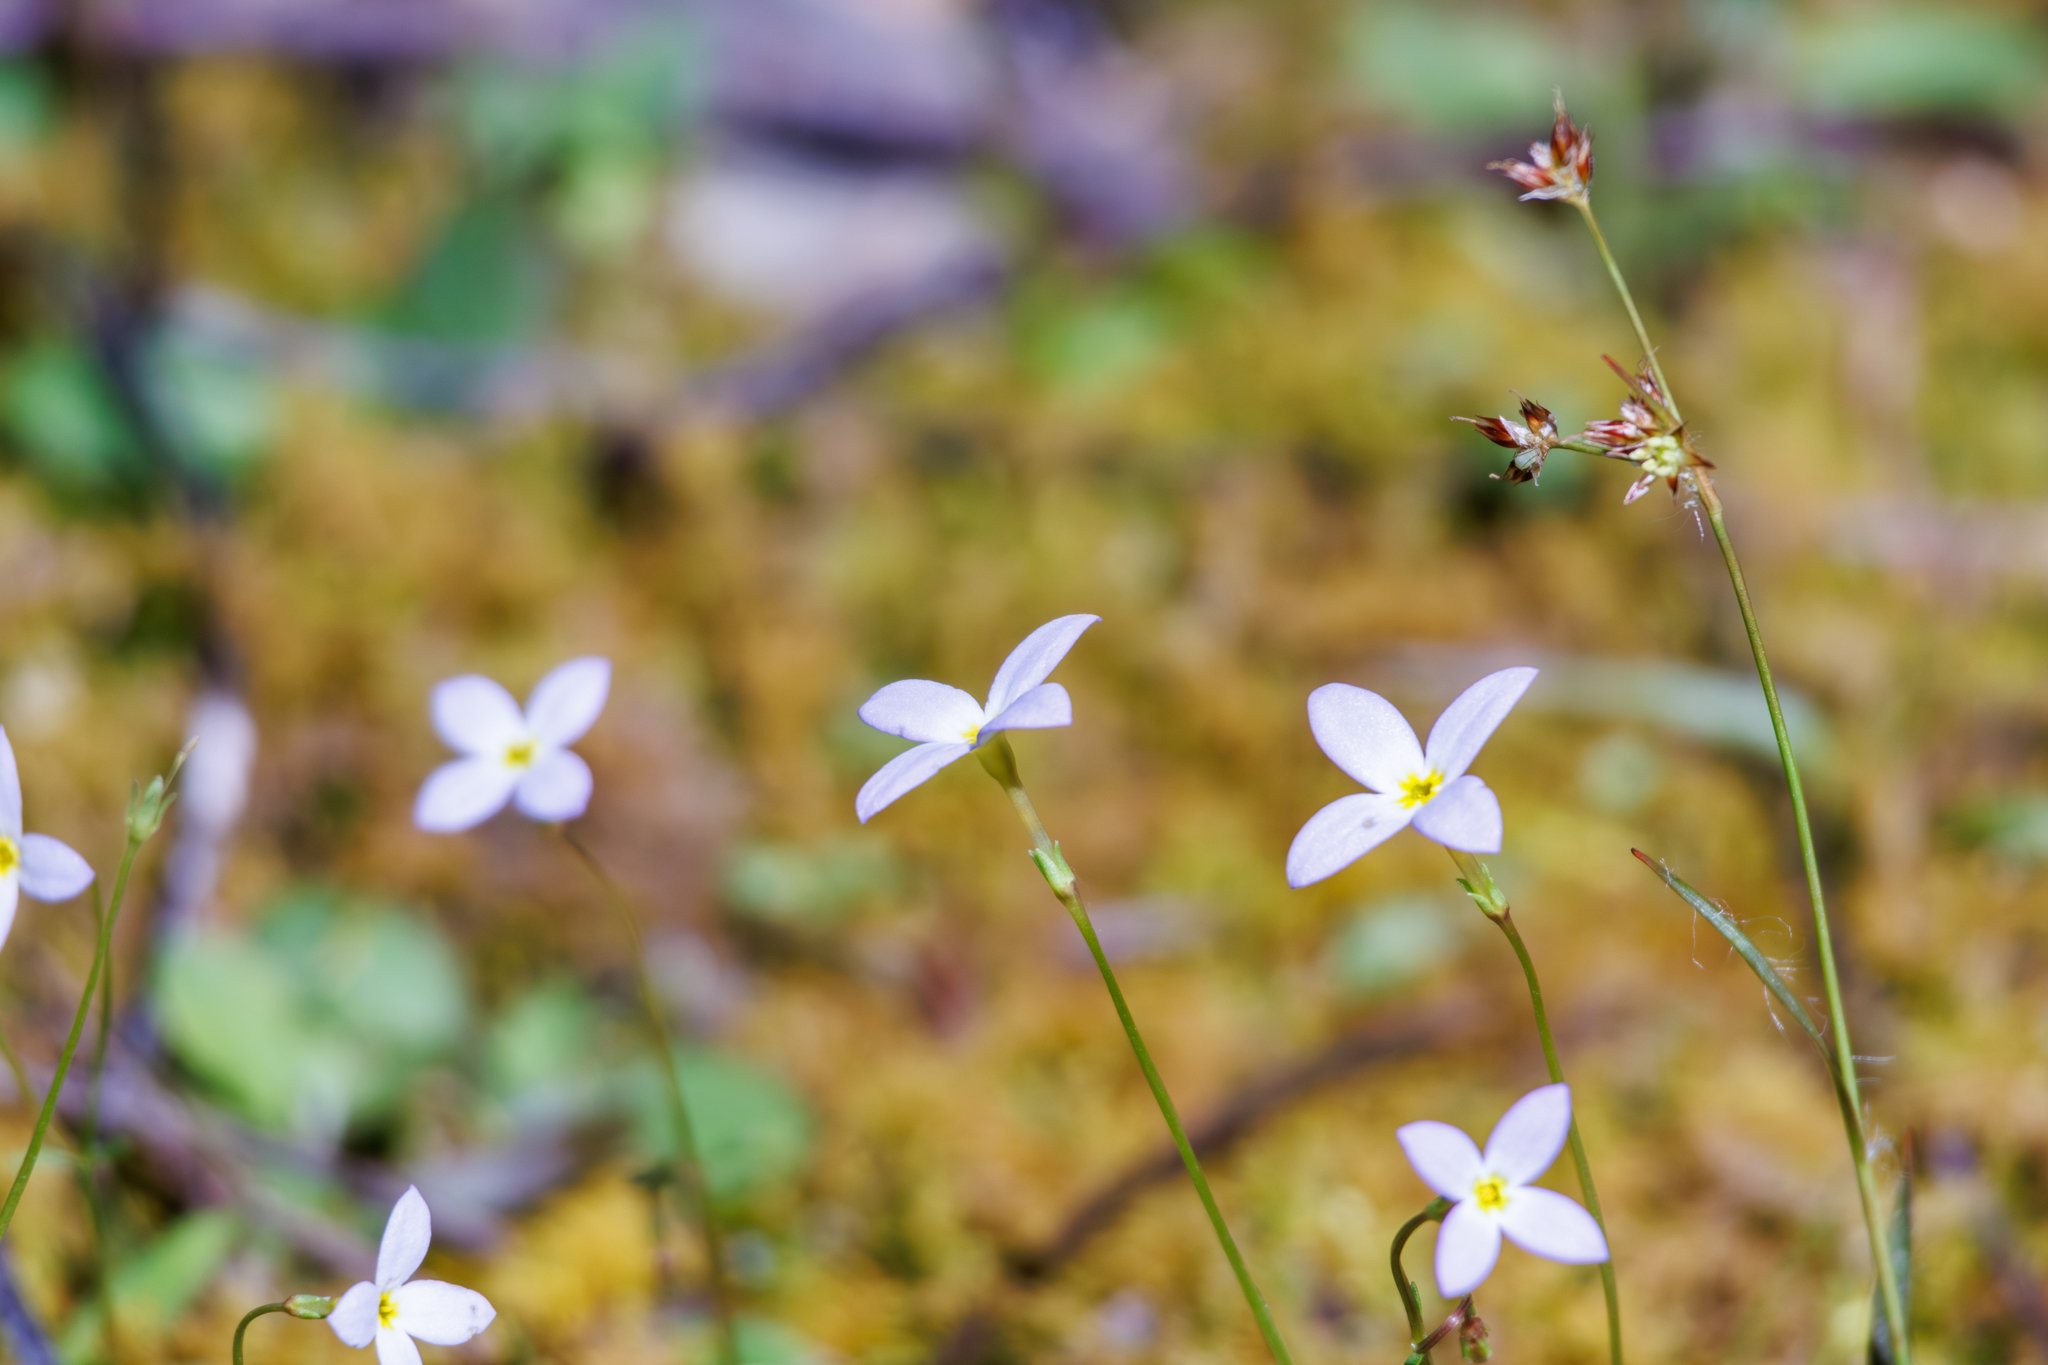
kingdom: Plantae
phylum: Tracheophyta
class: Magnoliopsida
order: Gentianales
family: Rubiaceae
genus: Houstonia
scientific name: Houstonia caerulea
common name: Bluets
